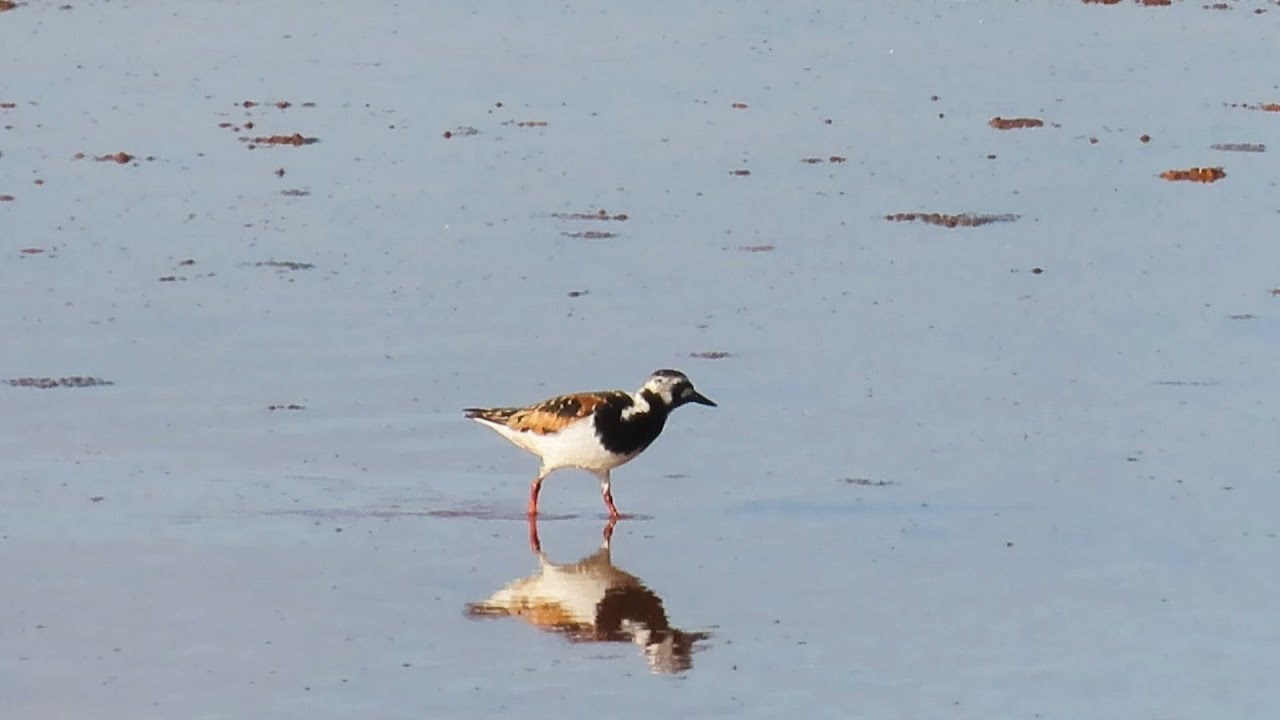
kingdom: Animalia
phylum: Chordata
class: Aves
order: Charadriiformes
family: Scolopacidae
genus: Arenaria
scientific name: Arenaria interpres
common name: Ruddy turnstone
